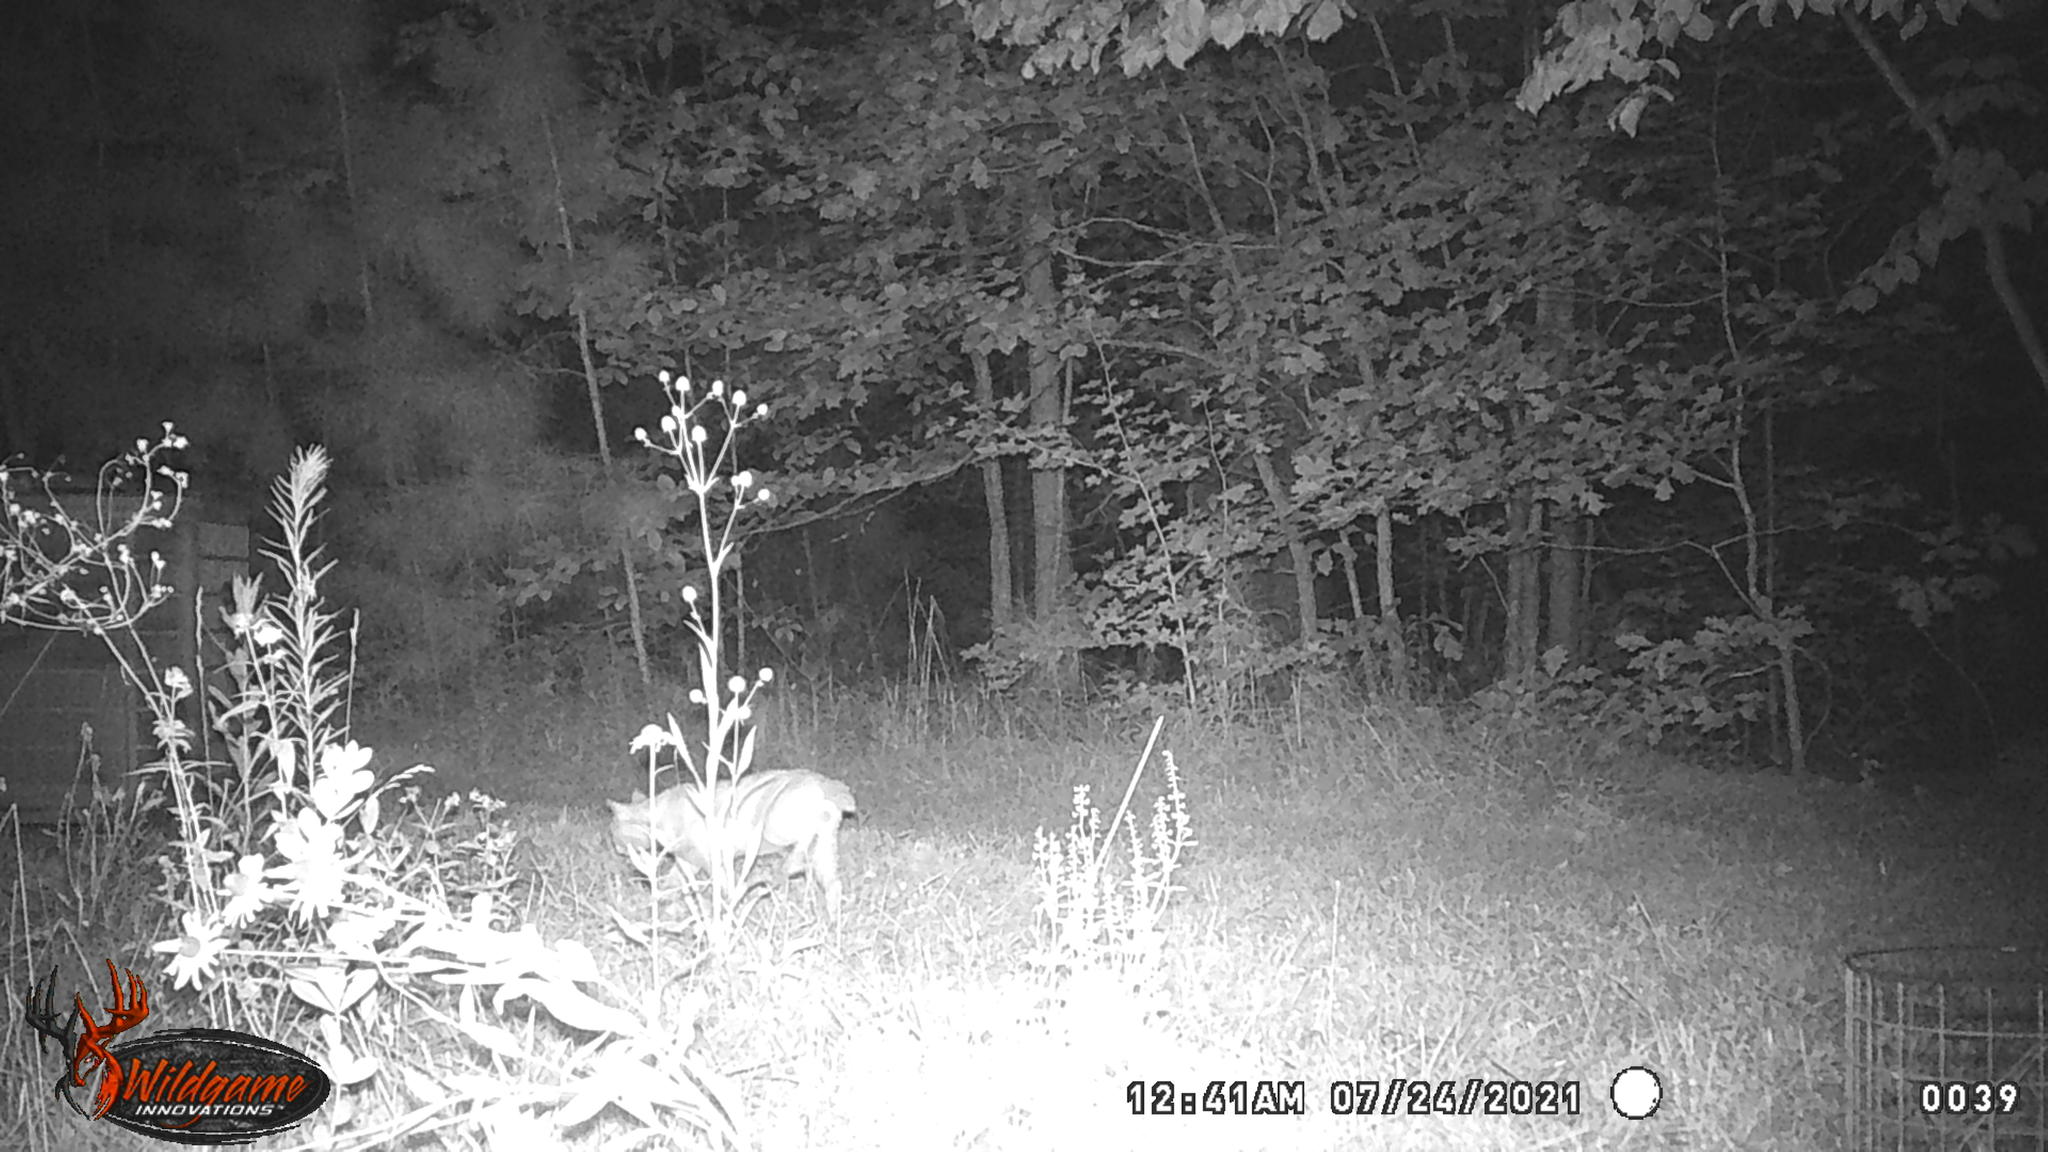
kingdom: Animalia
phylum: Chordata
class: Mammalia
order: Carnivora
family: Felidae
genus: Felis
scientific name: Felis catus
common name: Domestic cat
